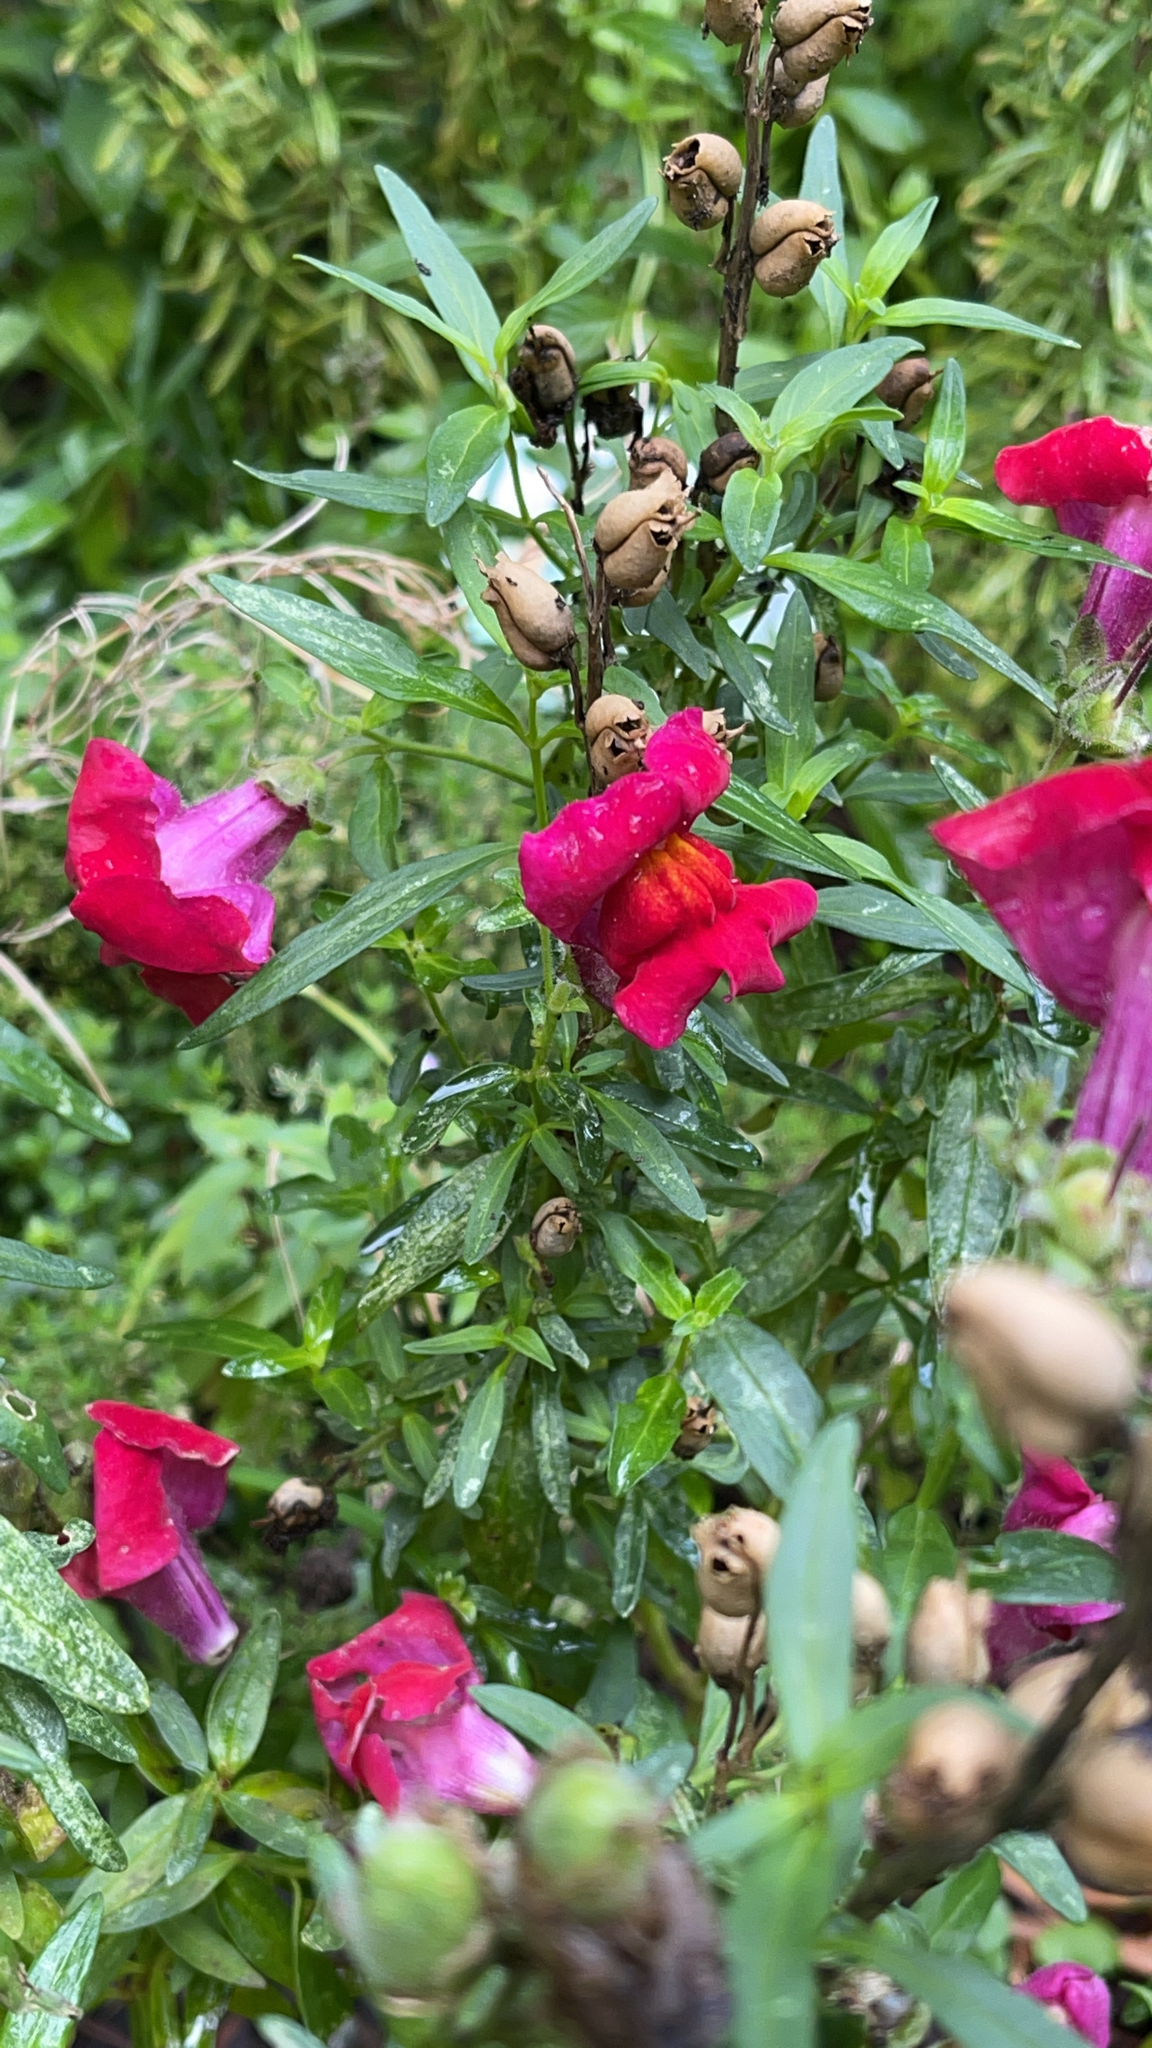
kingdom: Plantae
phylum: Tracheophyta
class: Magnoliopsida
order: Lamiales
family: Plantaginaceae
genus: Antirrhinum
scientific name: Antirrhinum majus
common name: Snapdragon
